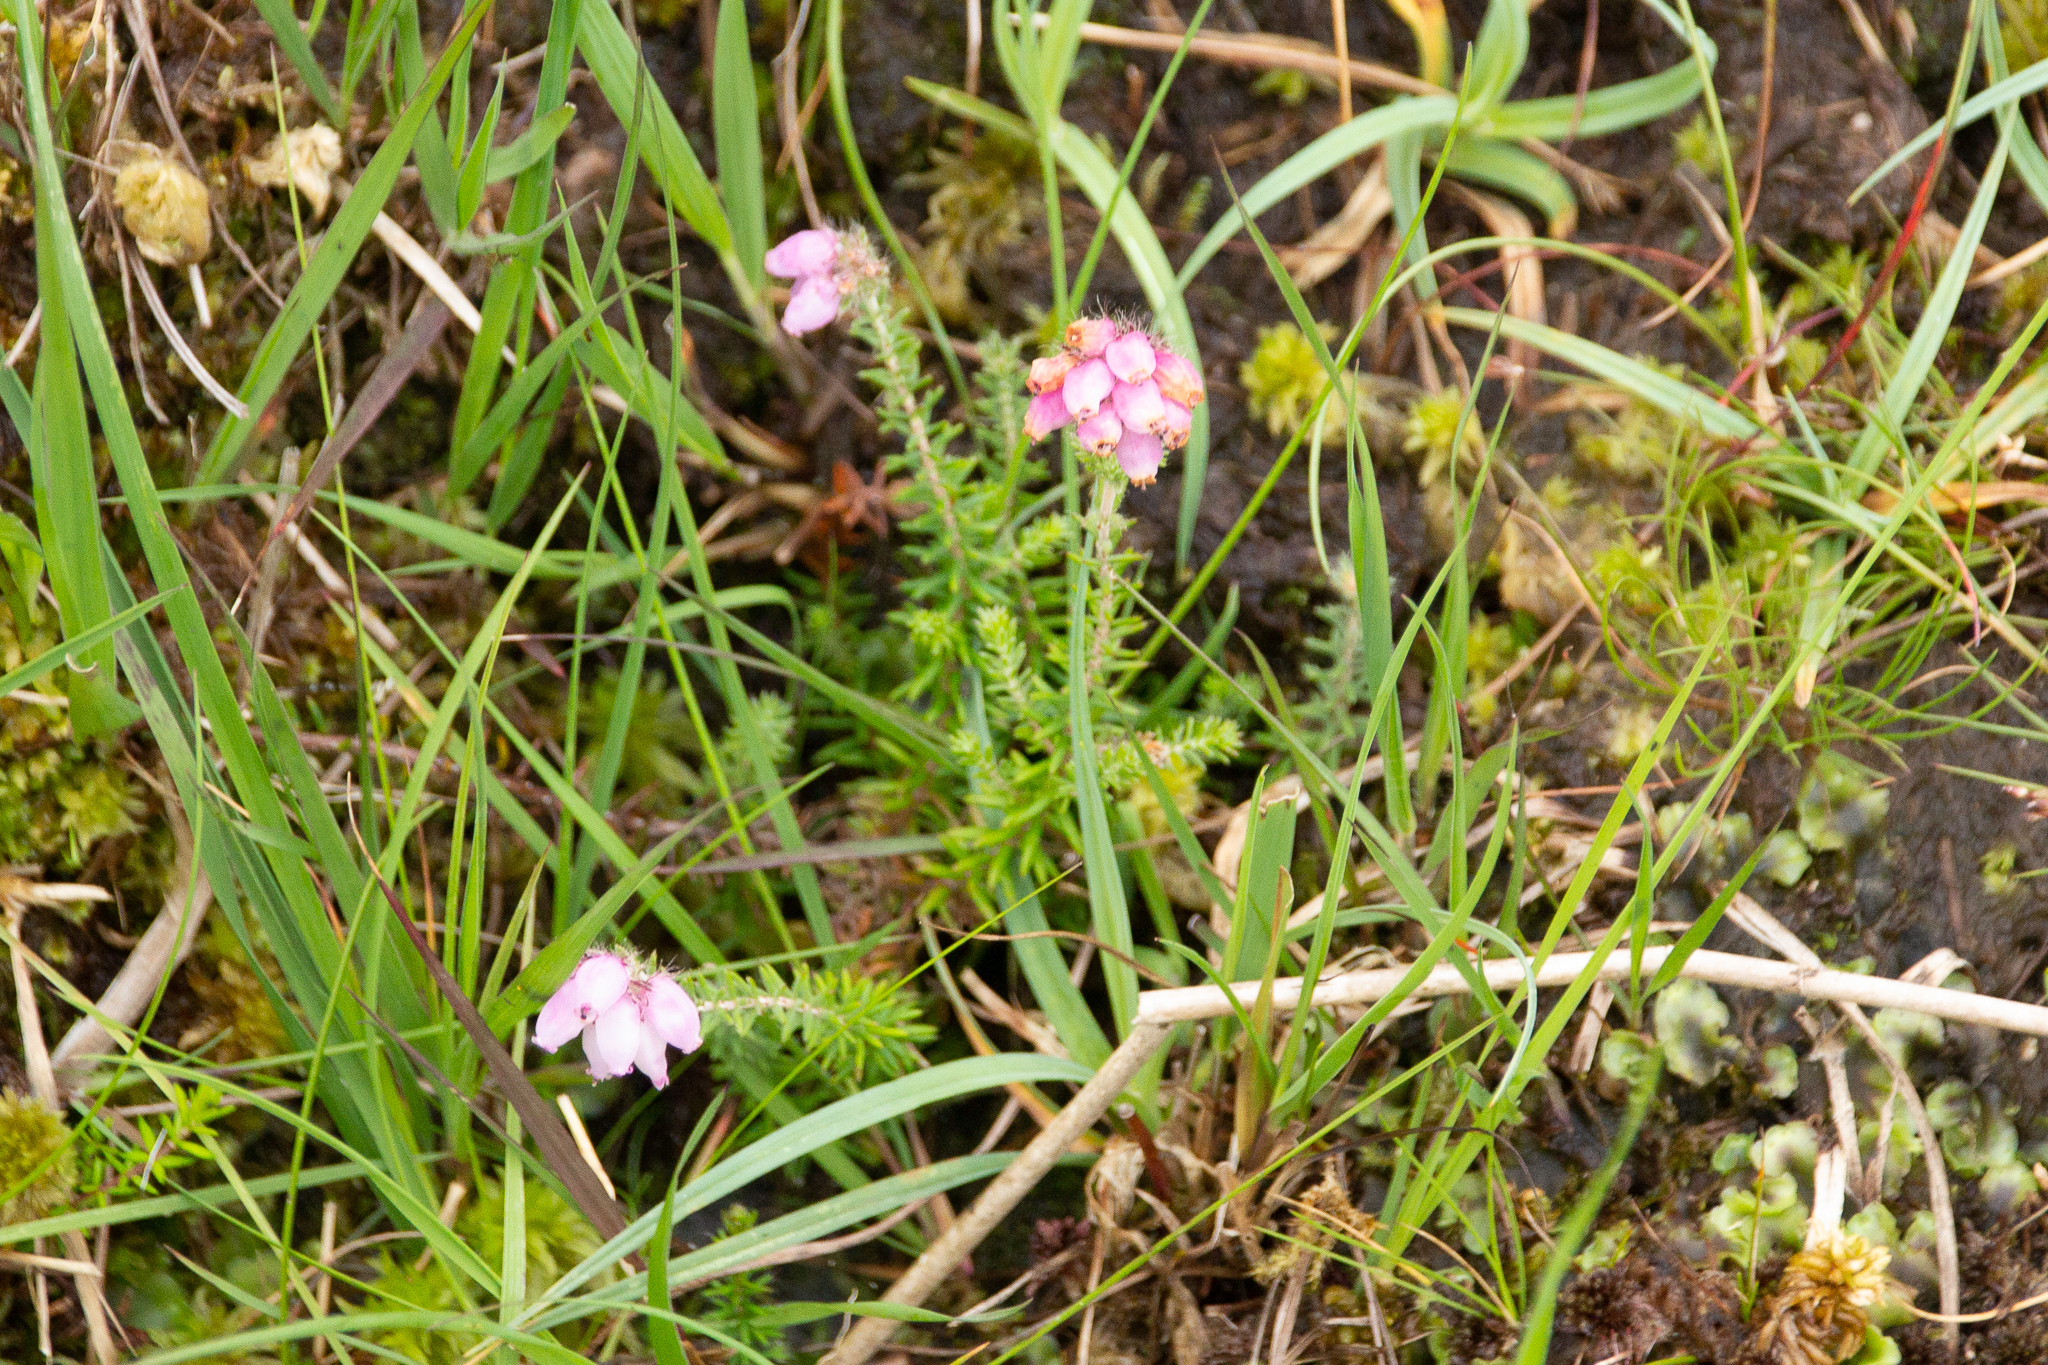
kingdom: Plantae
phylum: Tracheophyta
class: Magnoliopsida
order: Ericales
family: Ericaceae
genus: Erica
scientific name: Erica tetralix
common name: Cross-leaved heath
